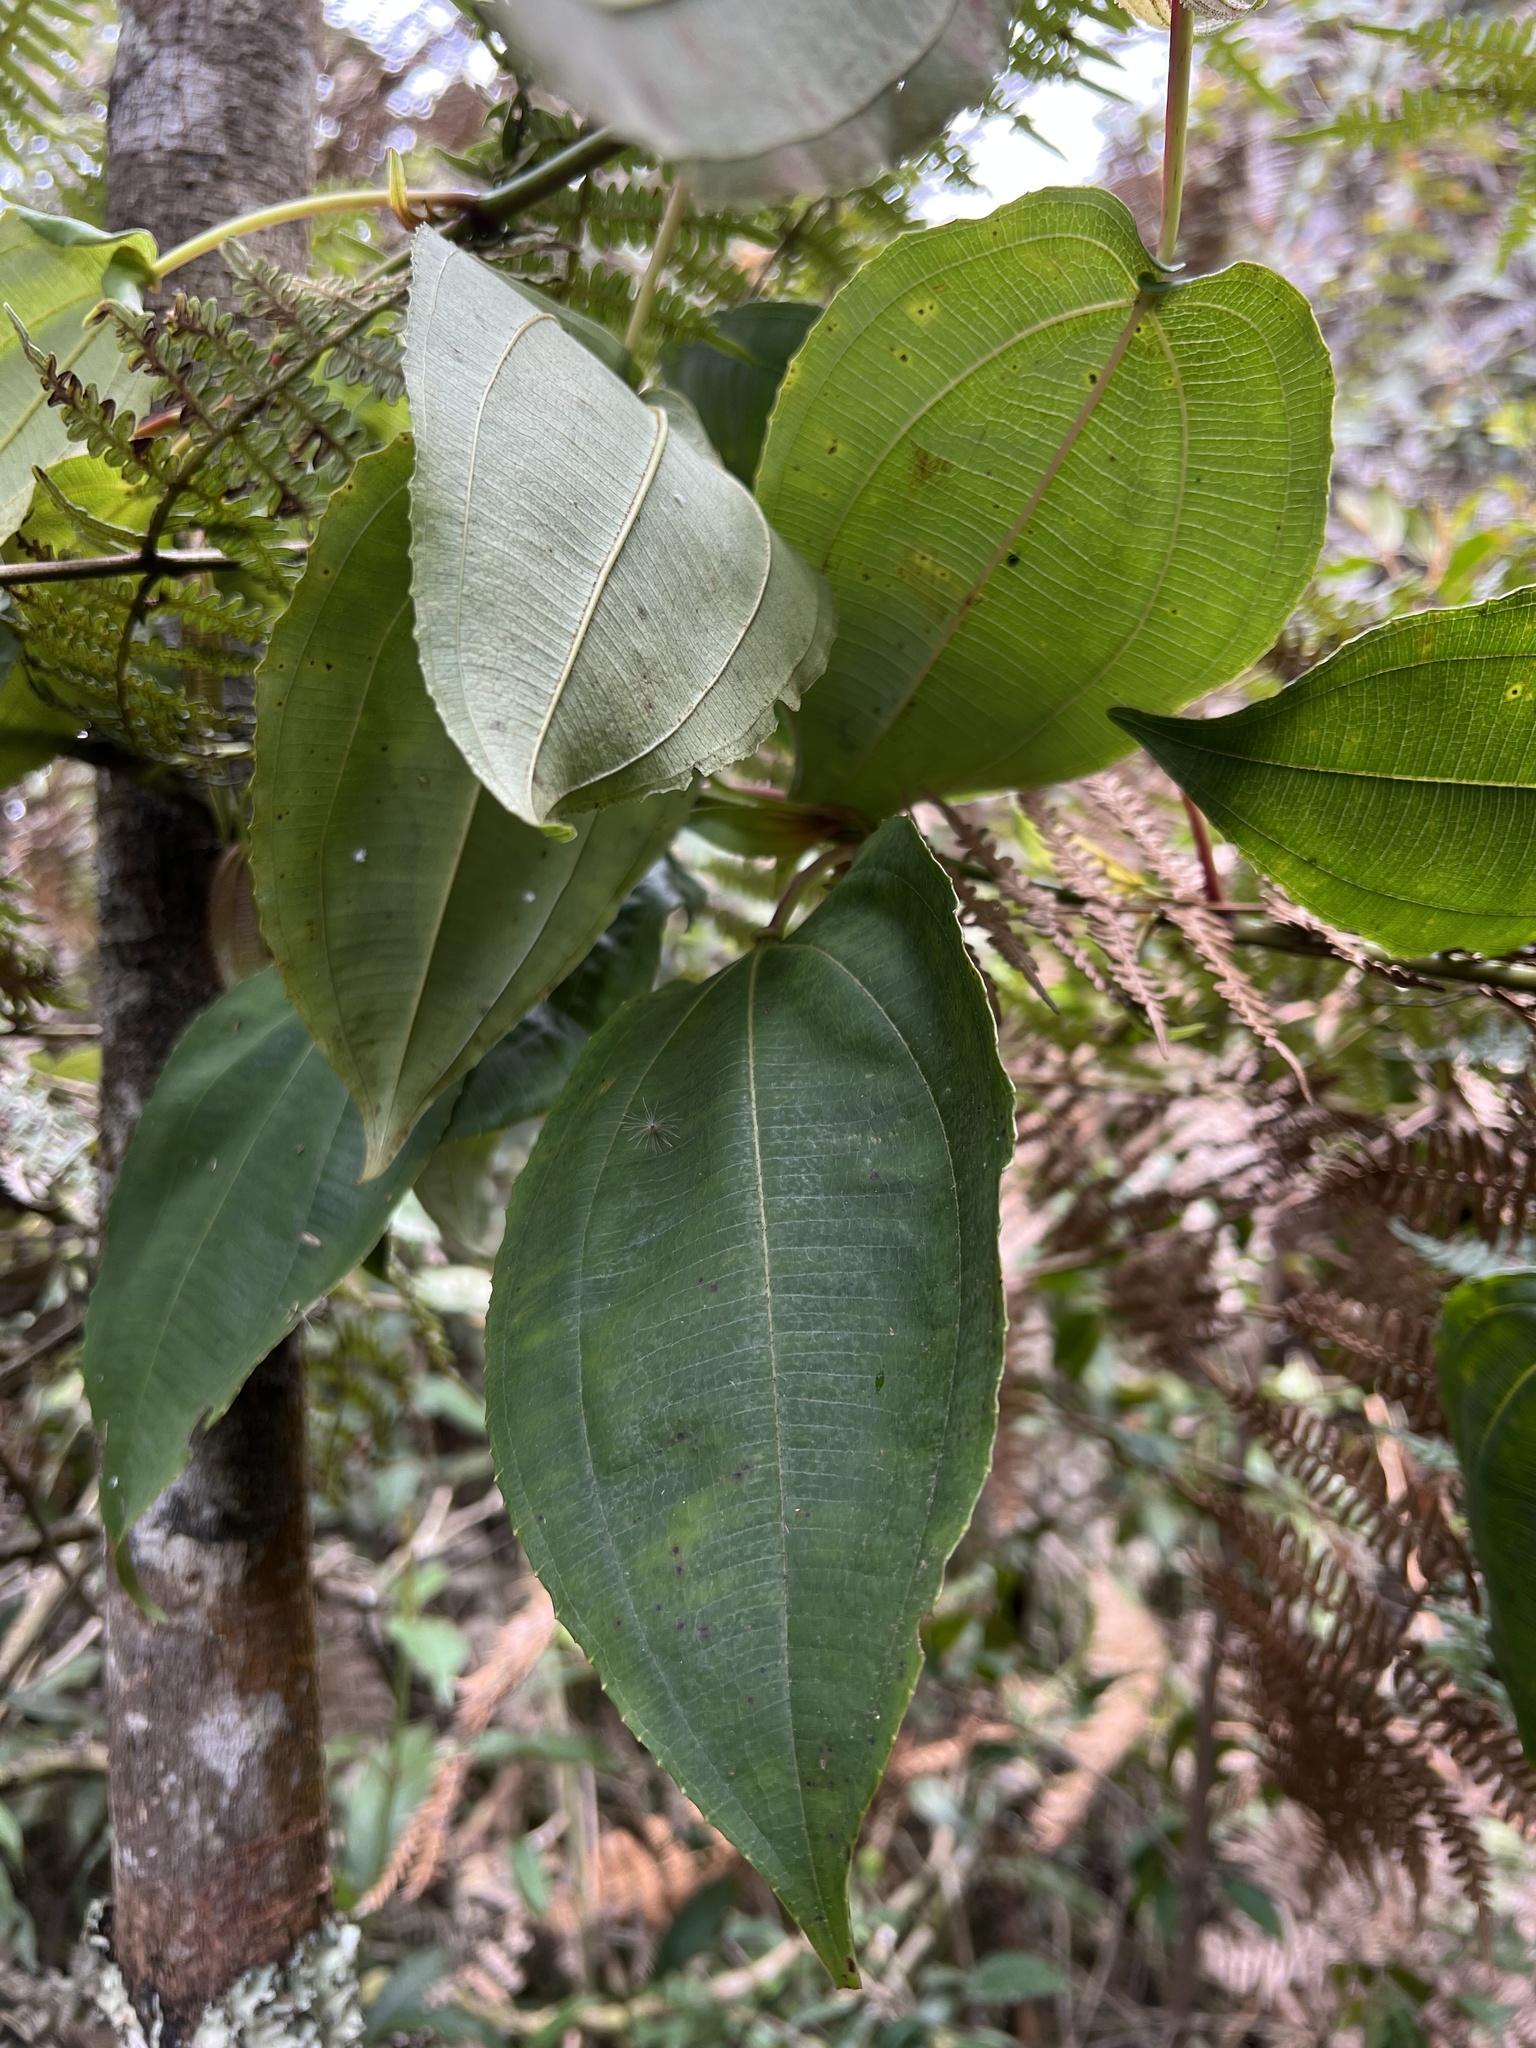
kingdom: Plantae
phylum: Tracheophyta
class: Magnoliopsida
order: Myrtales
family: Melastomataceae
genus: Axinaea
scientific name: Axinaea scutigera
